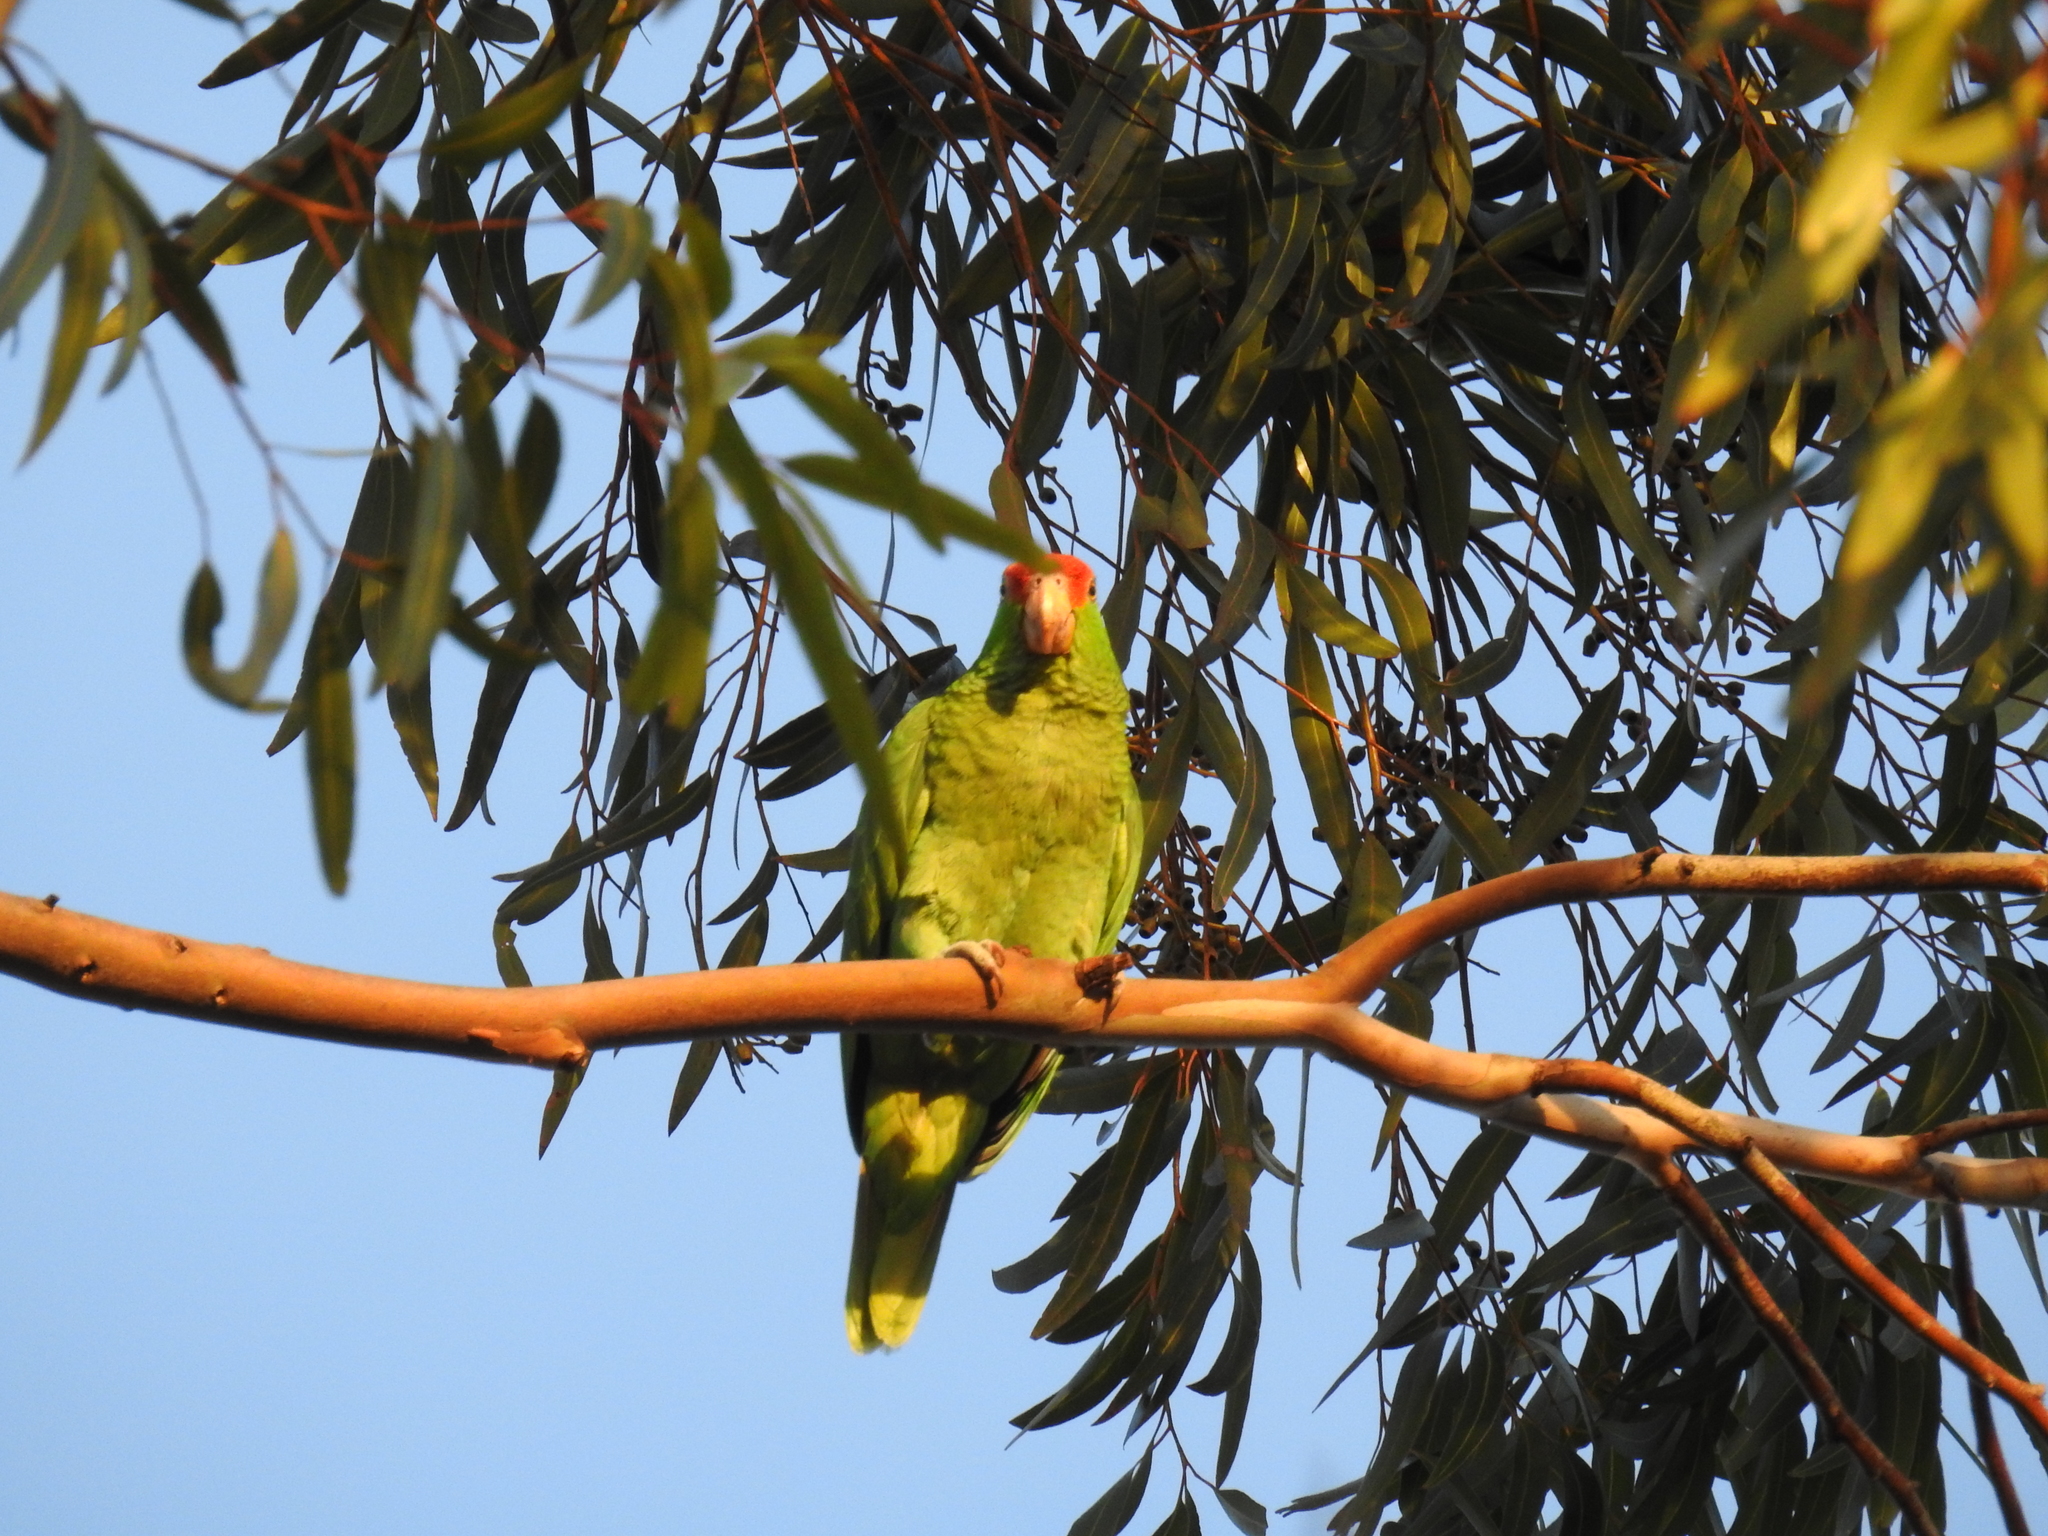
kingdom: Animalia
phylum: Chordata
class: Aves
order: Psittaciformes
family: Psittacidae
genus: Amazona
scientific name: Amazona viridigenalis
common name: Red-crowned amazon
